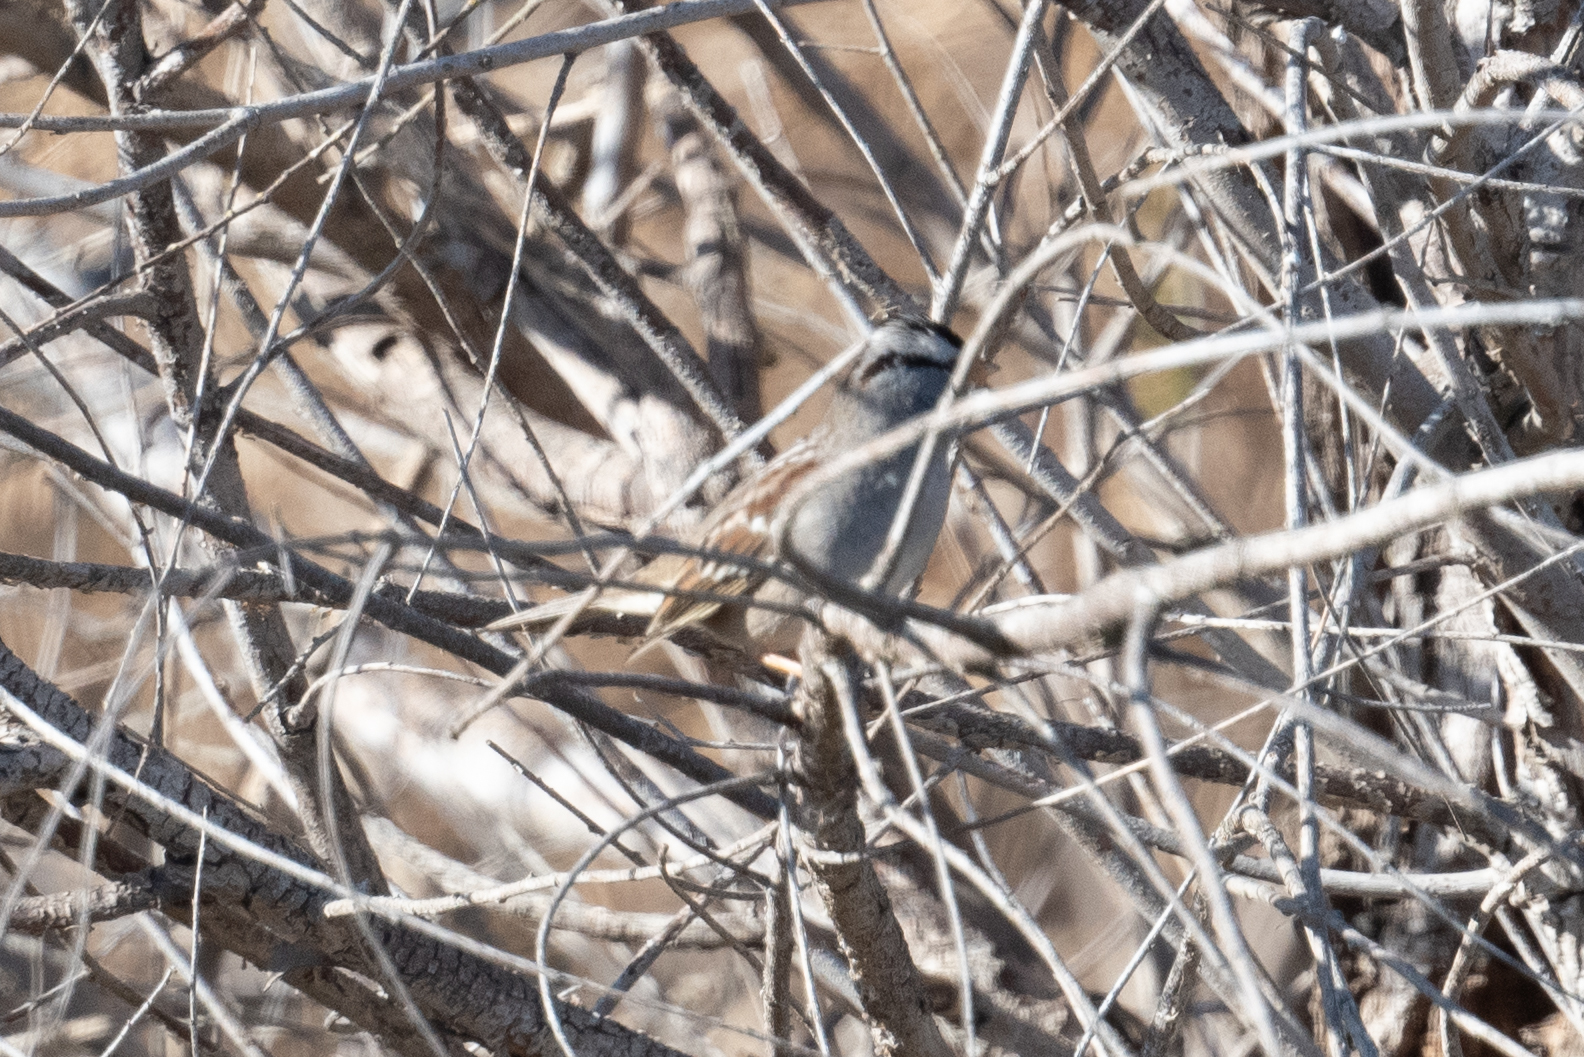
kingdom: Animalia
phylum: Chordata
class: Aves
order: Passeriformes
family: Passerellidae
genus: Zonotrichia
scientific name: Zonotrichia leucophrys
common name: White-crowned sparrow
